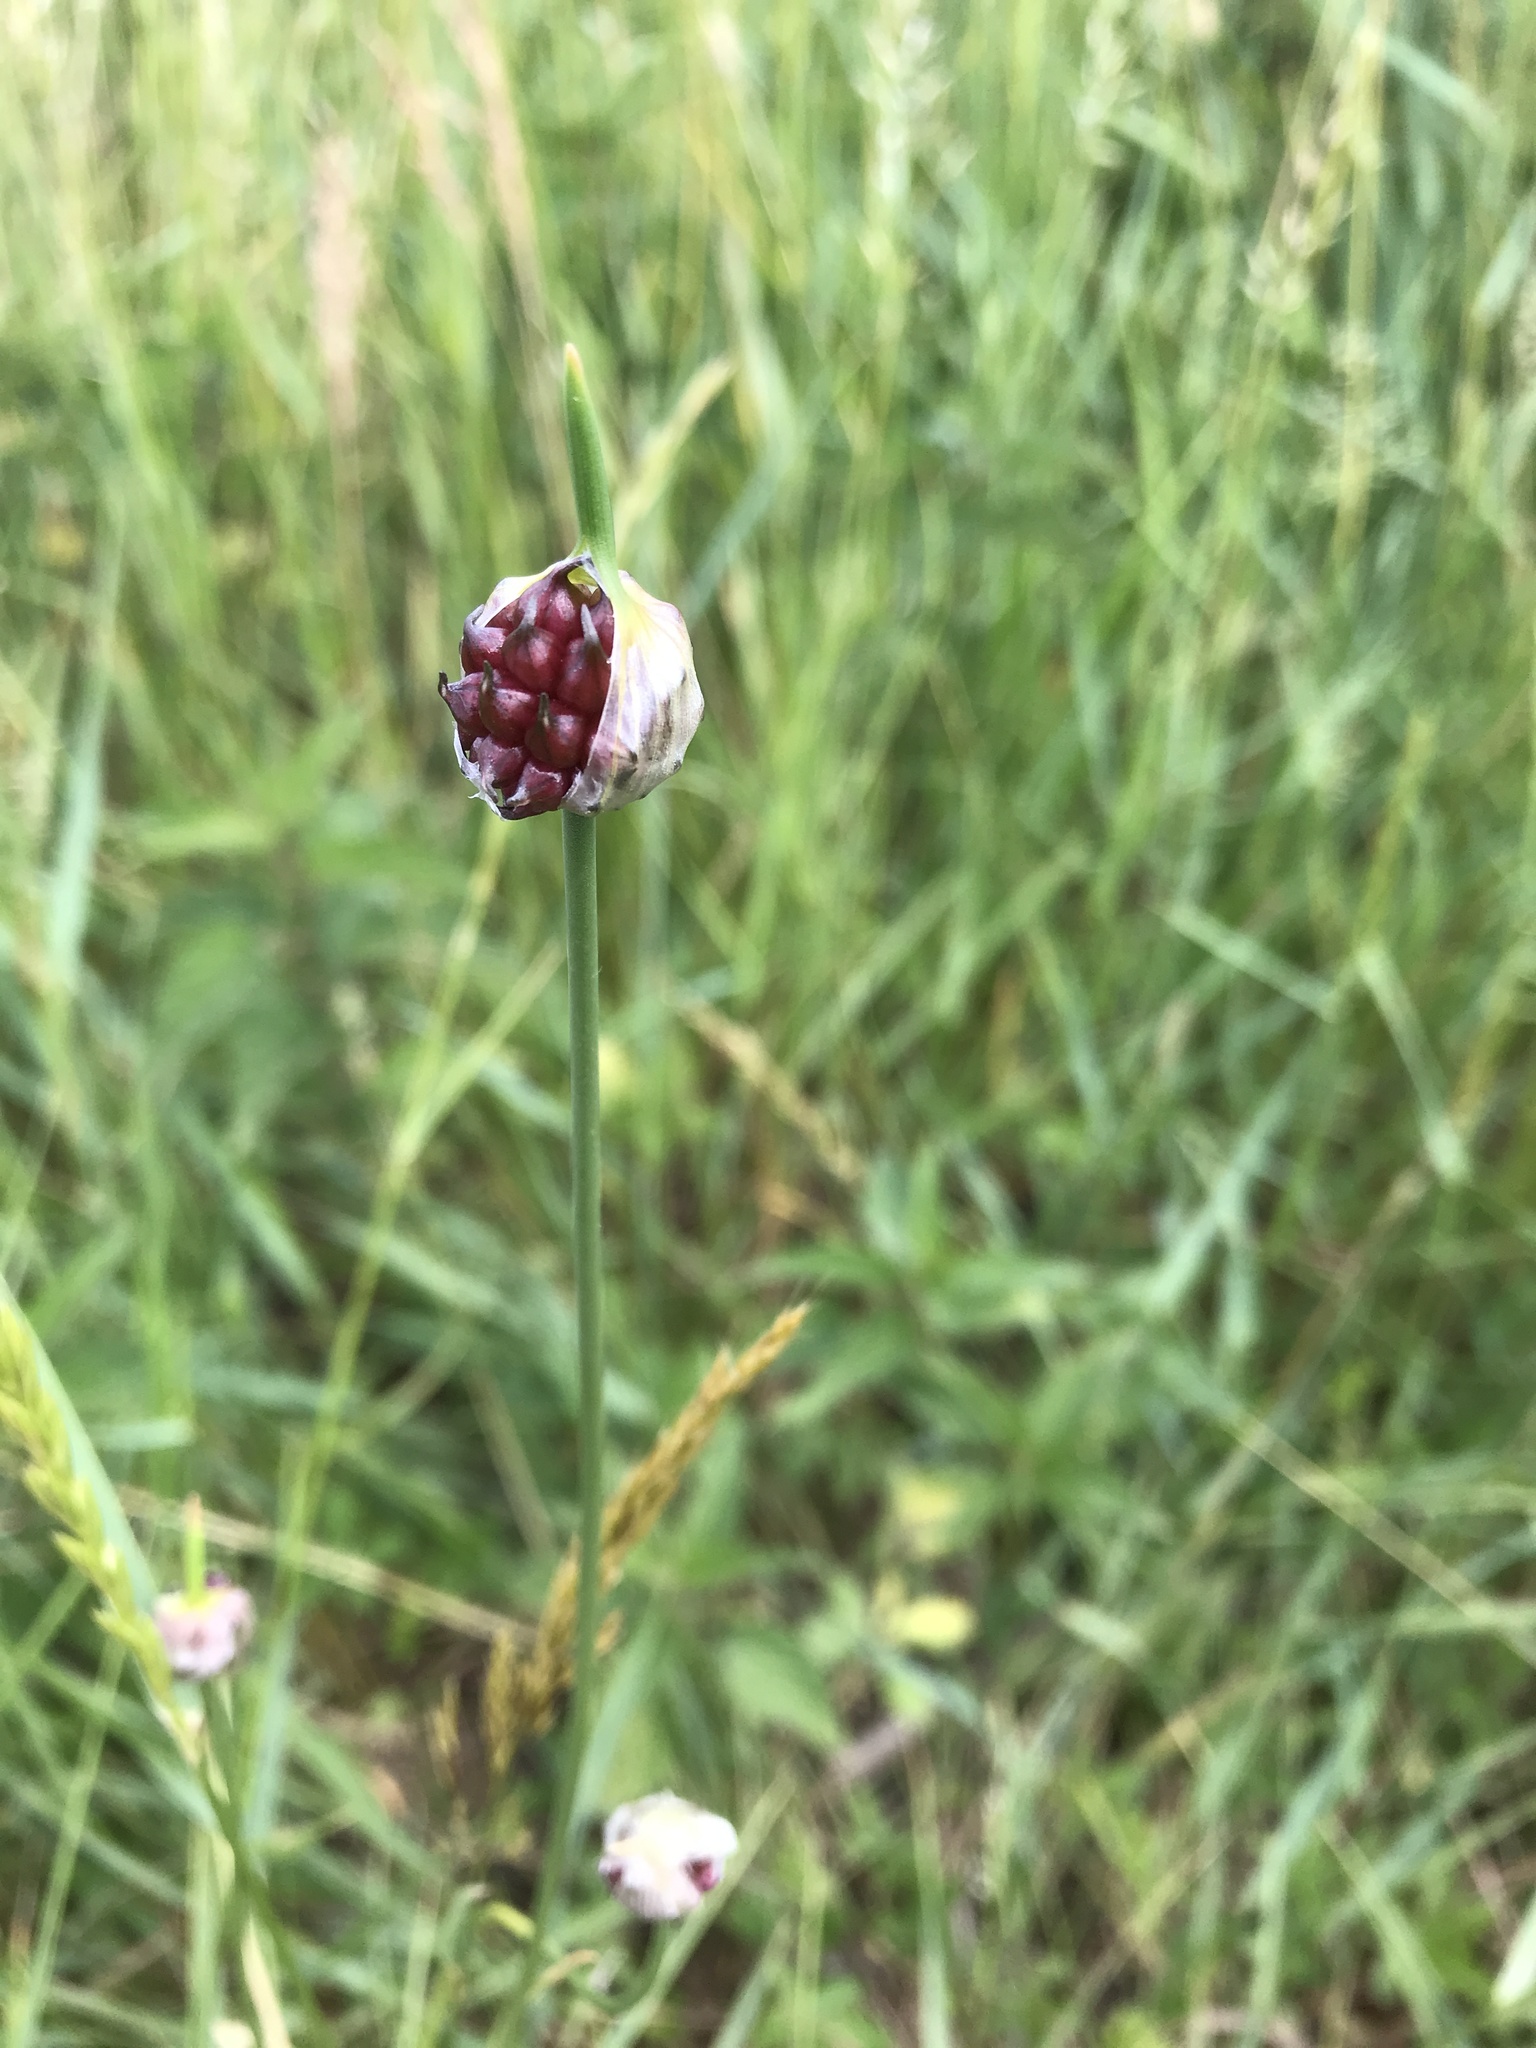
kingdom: Plantae
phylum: Tracheophyta
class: Liliopsida
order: Asparagales
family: Amaryllidaceae
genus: Allium
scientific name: Allium vineale
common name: Crow garlic
